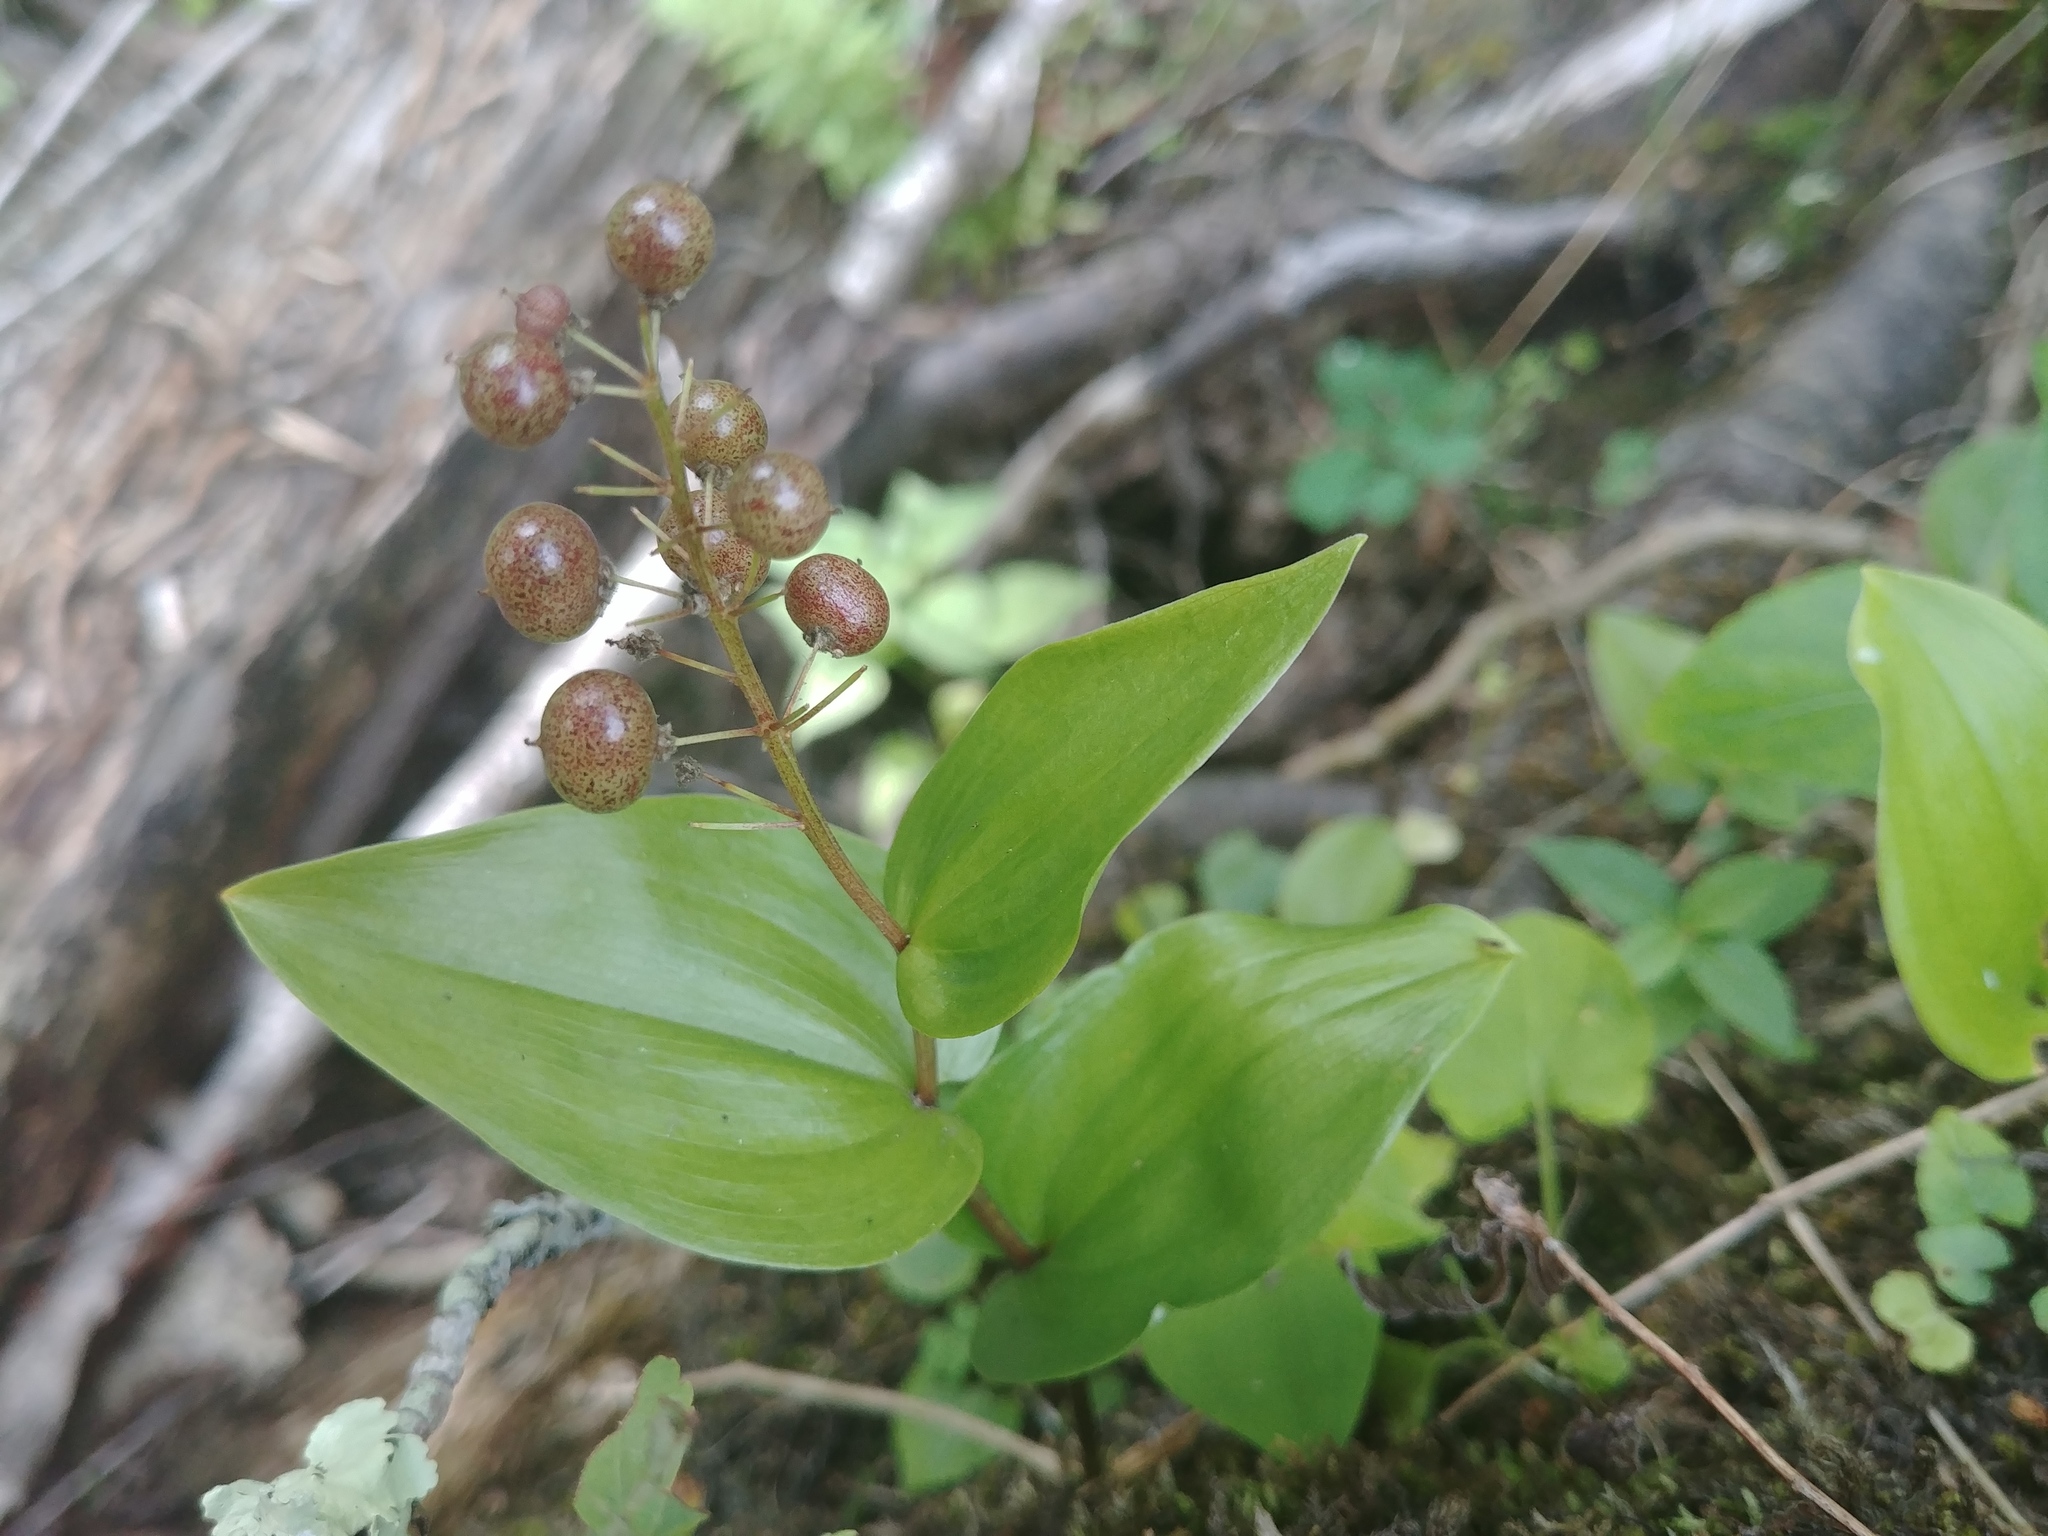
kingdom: Plantae
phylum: Tracheophyta
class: Liliopsida
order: Asparagales
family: Asparagaceae
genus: Maianthemum
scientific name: Maianthemum canadense
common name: False lily-of-the-valley
